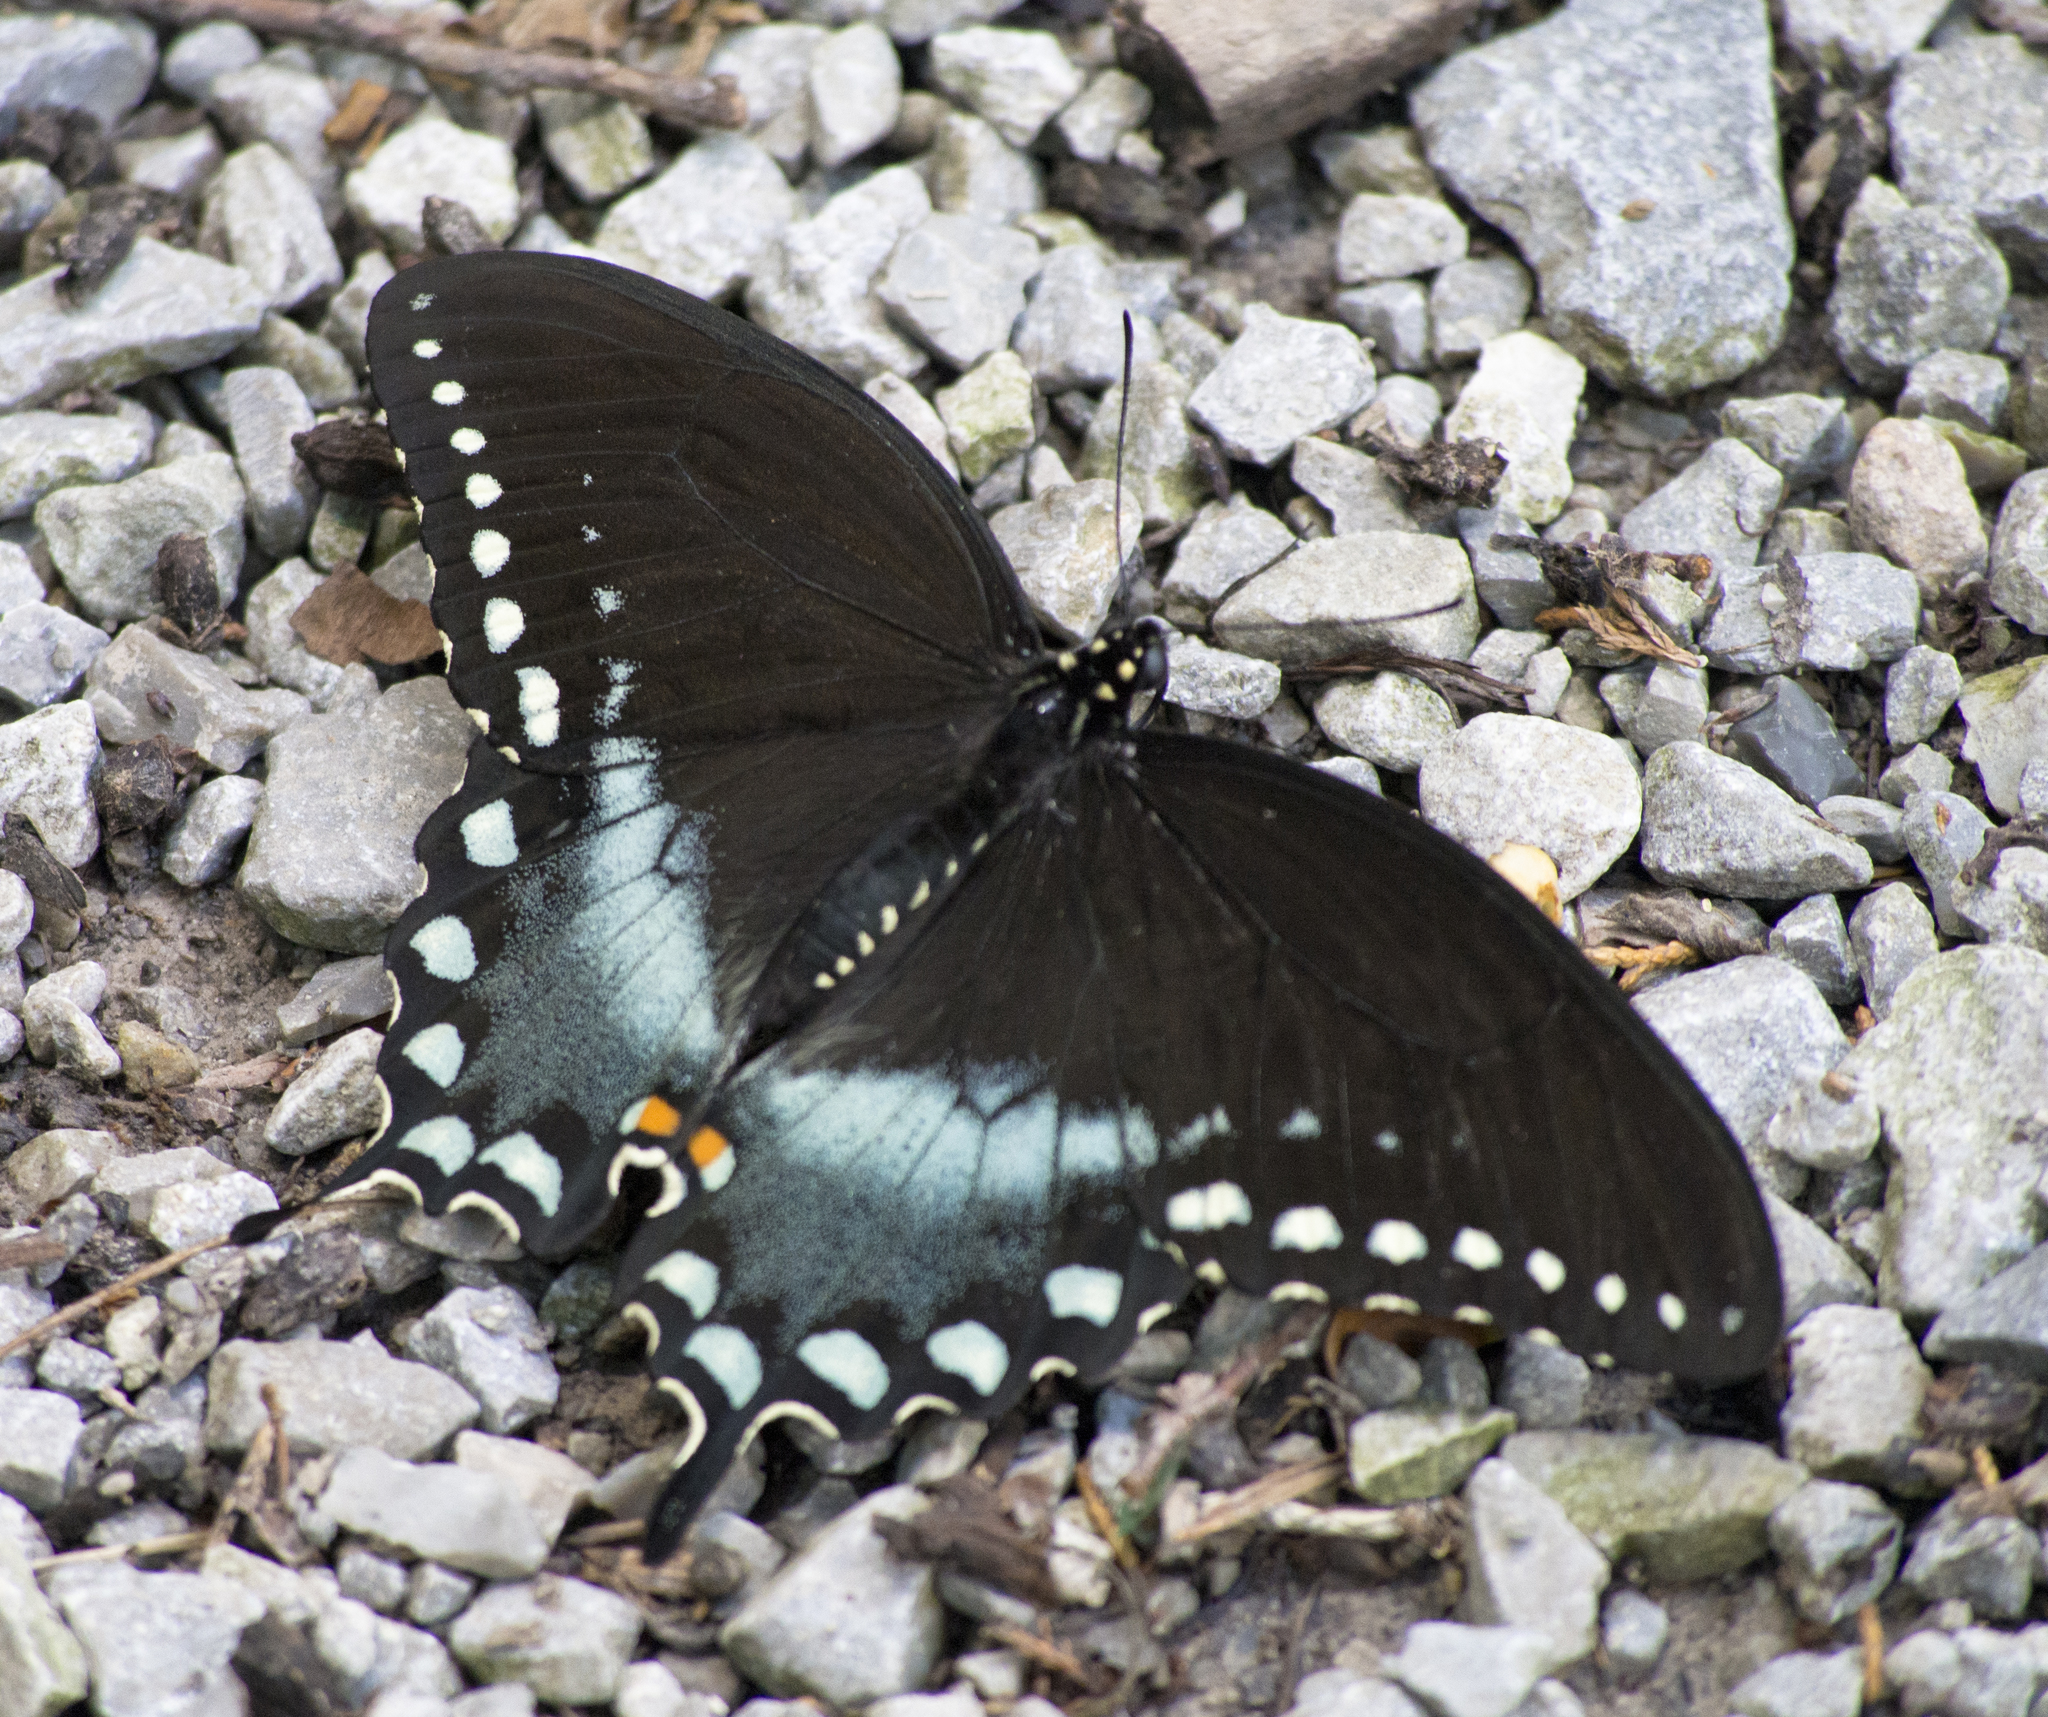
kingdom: Animalia
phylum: Arthropoda
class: Insecta
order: Lepidoptera
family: Papilionidae
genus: Papilio
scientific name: Papilio troilus
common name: Spicebush swallowtail
